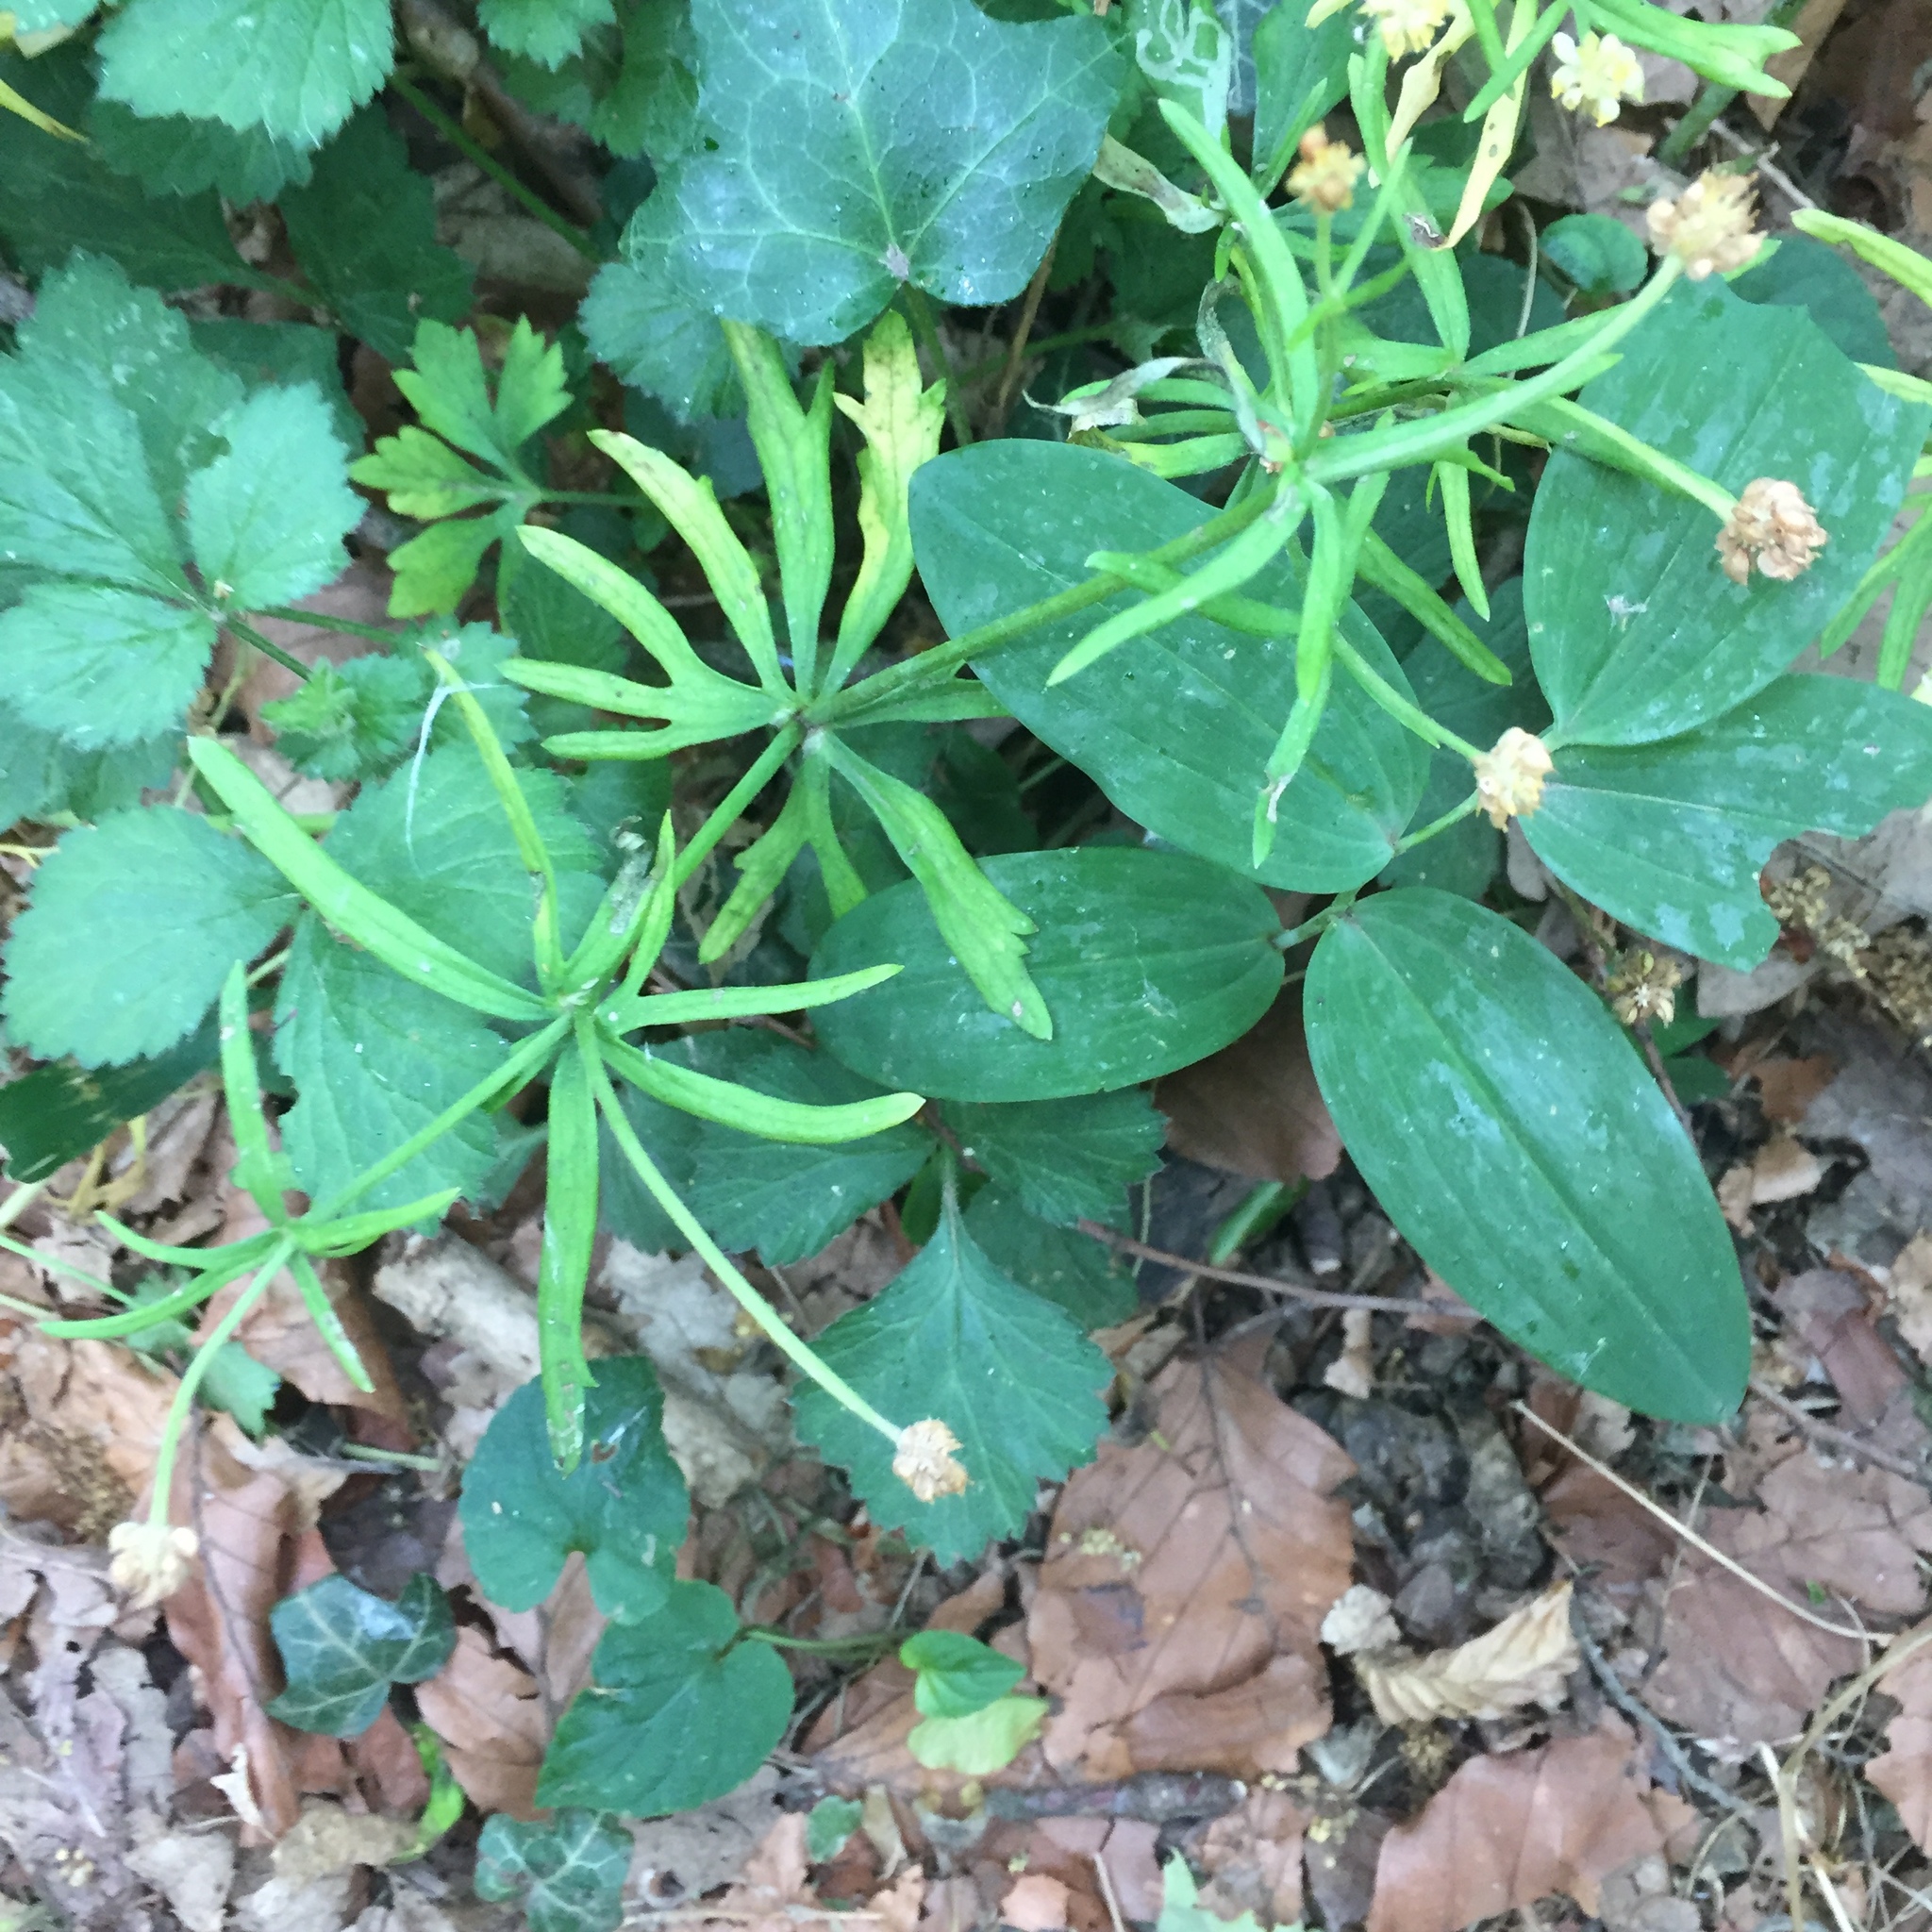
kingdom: Plantae
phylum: Tracheophyta
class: Magnoliopsida
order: Ranunculales
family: Ranunculaceae
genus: Ranunculus
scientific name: Ranunculus auricomus
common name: Goldilocks buttercup
